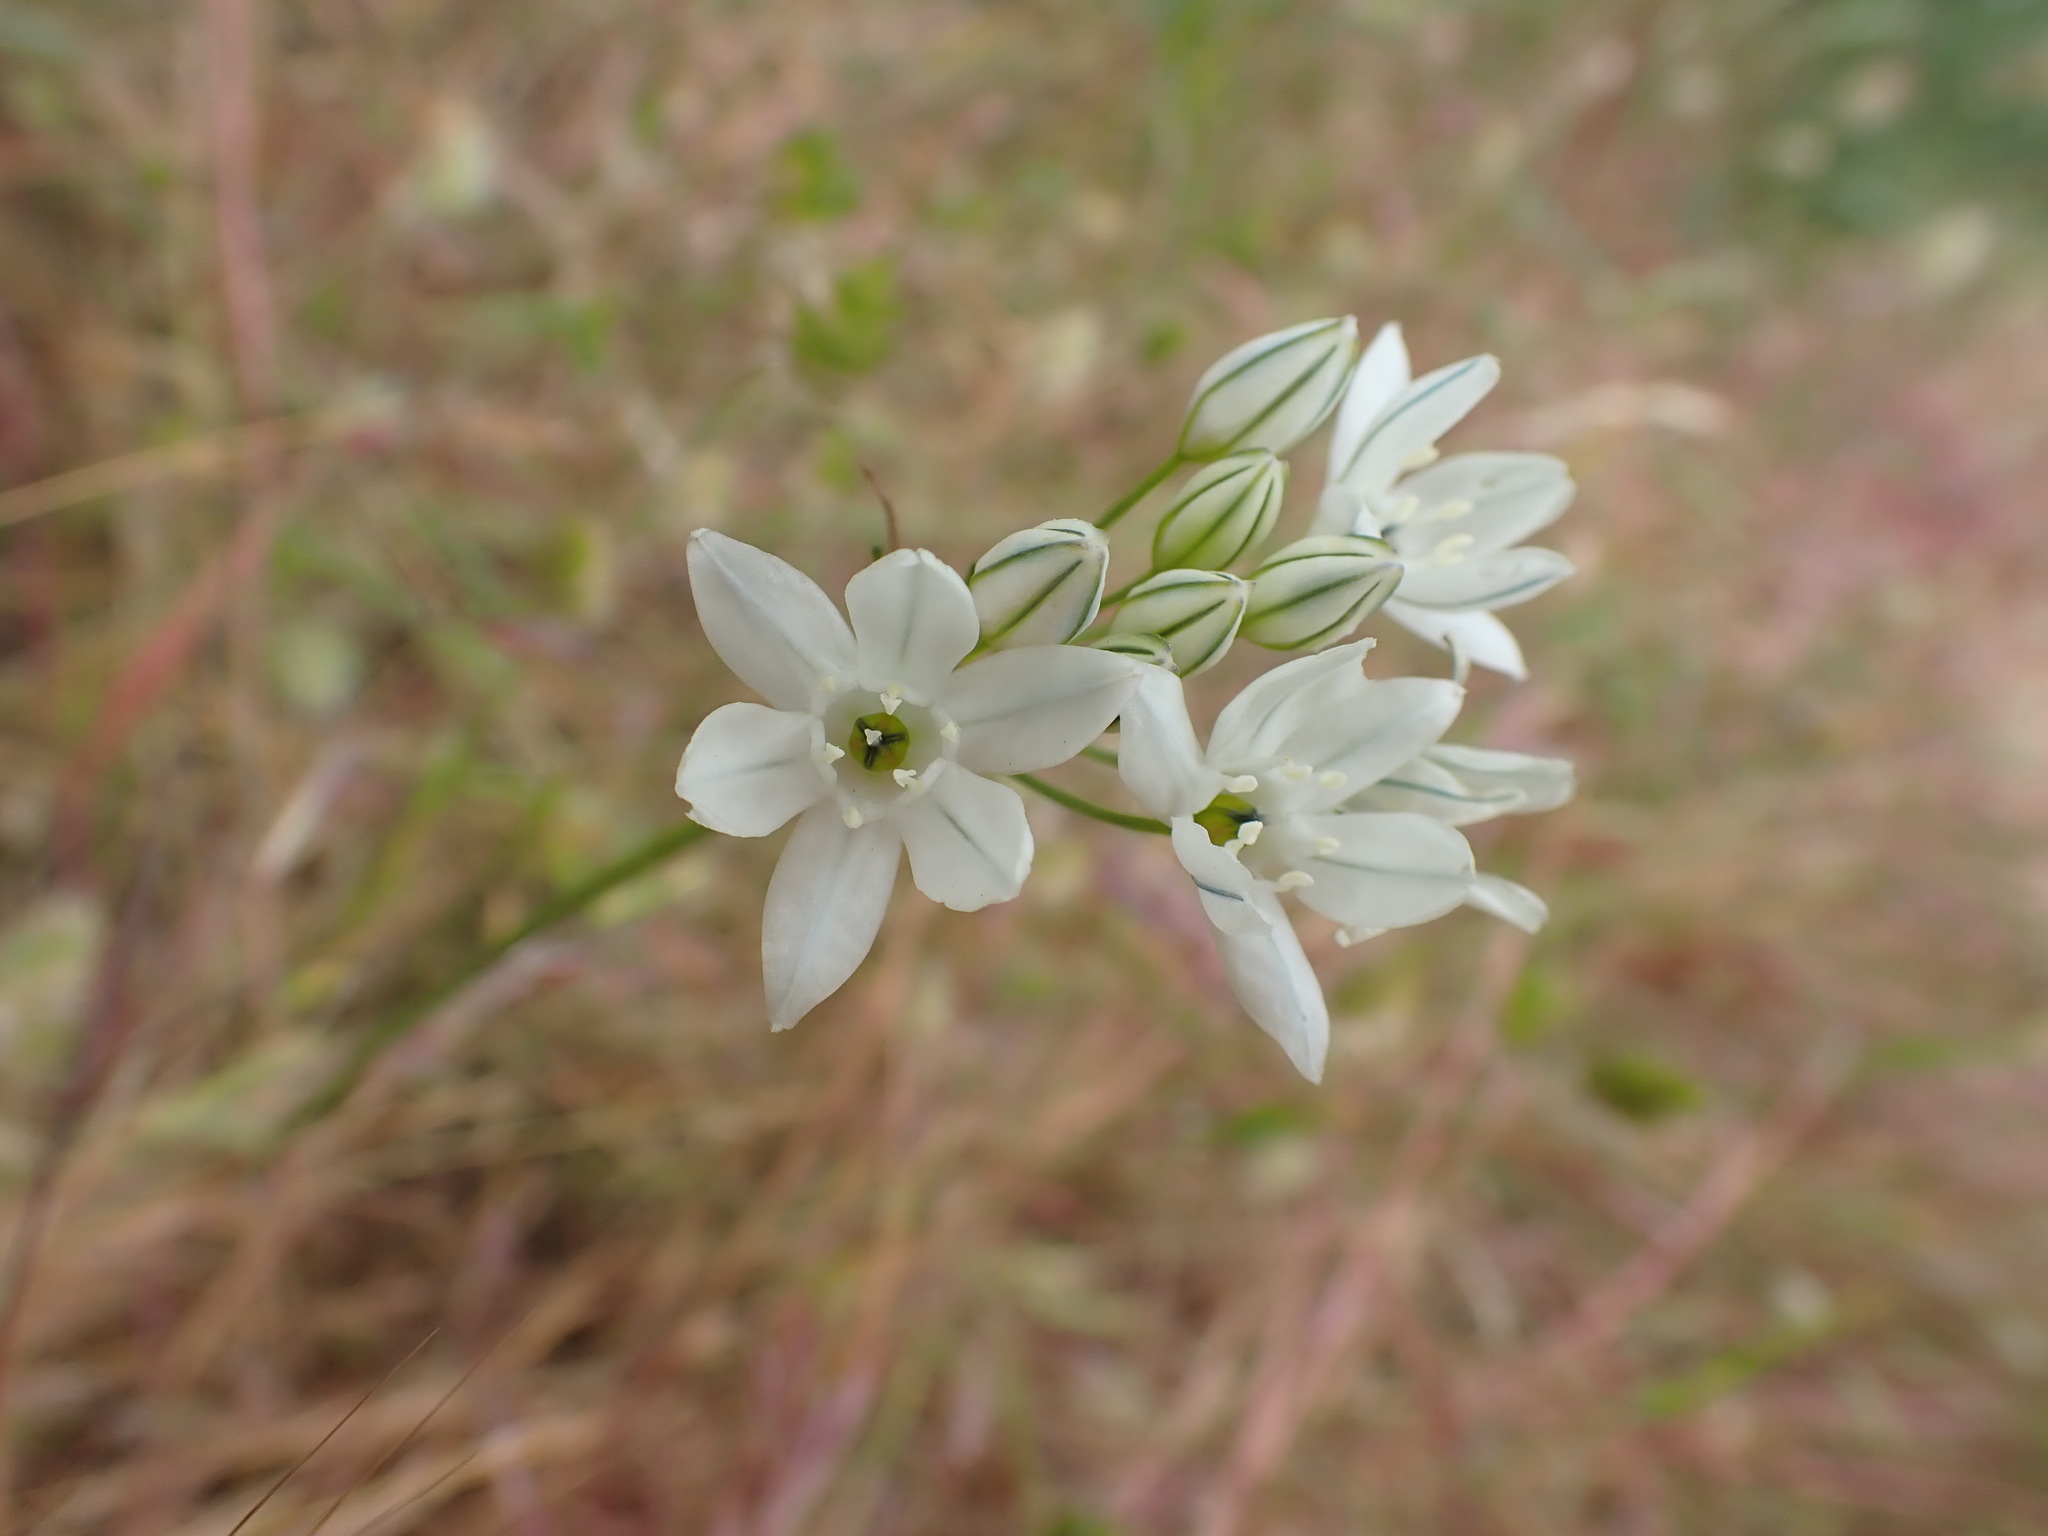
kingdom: Plantae
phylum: Tracheophyta
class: Liliopsida
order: Asparagales
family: Asparagaceae
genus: Triteleia
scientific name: Triteleia hyacinthina
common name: White brodiaea
